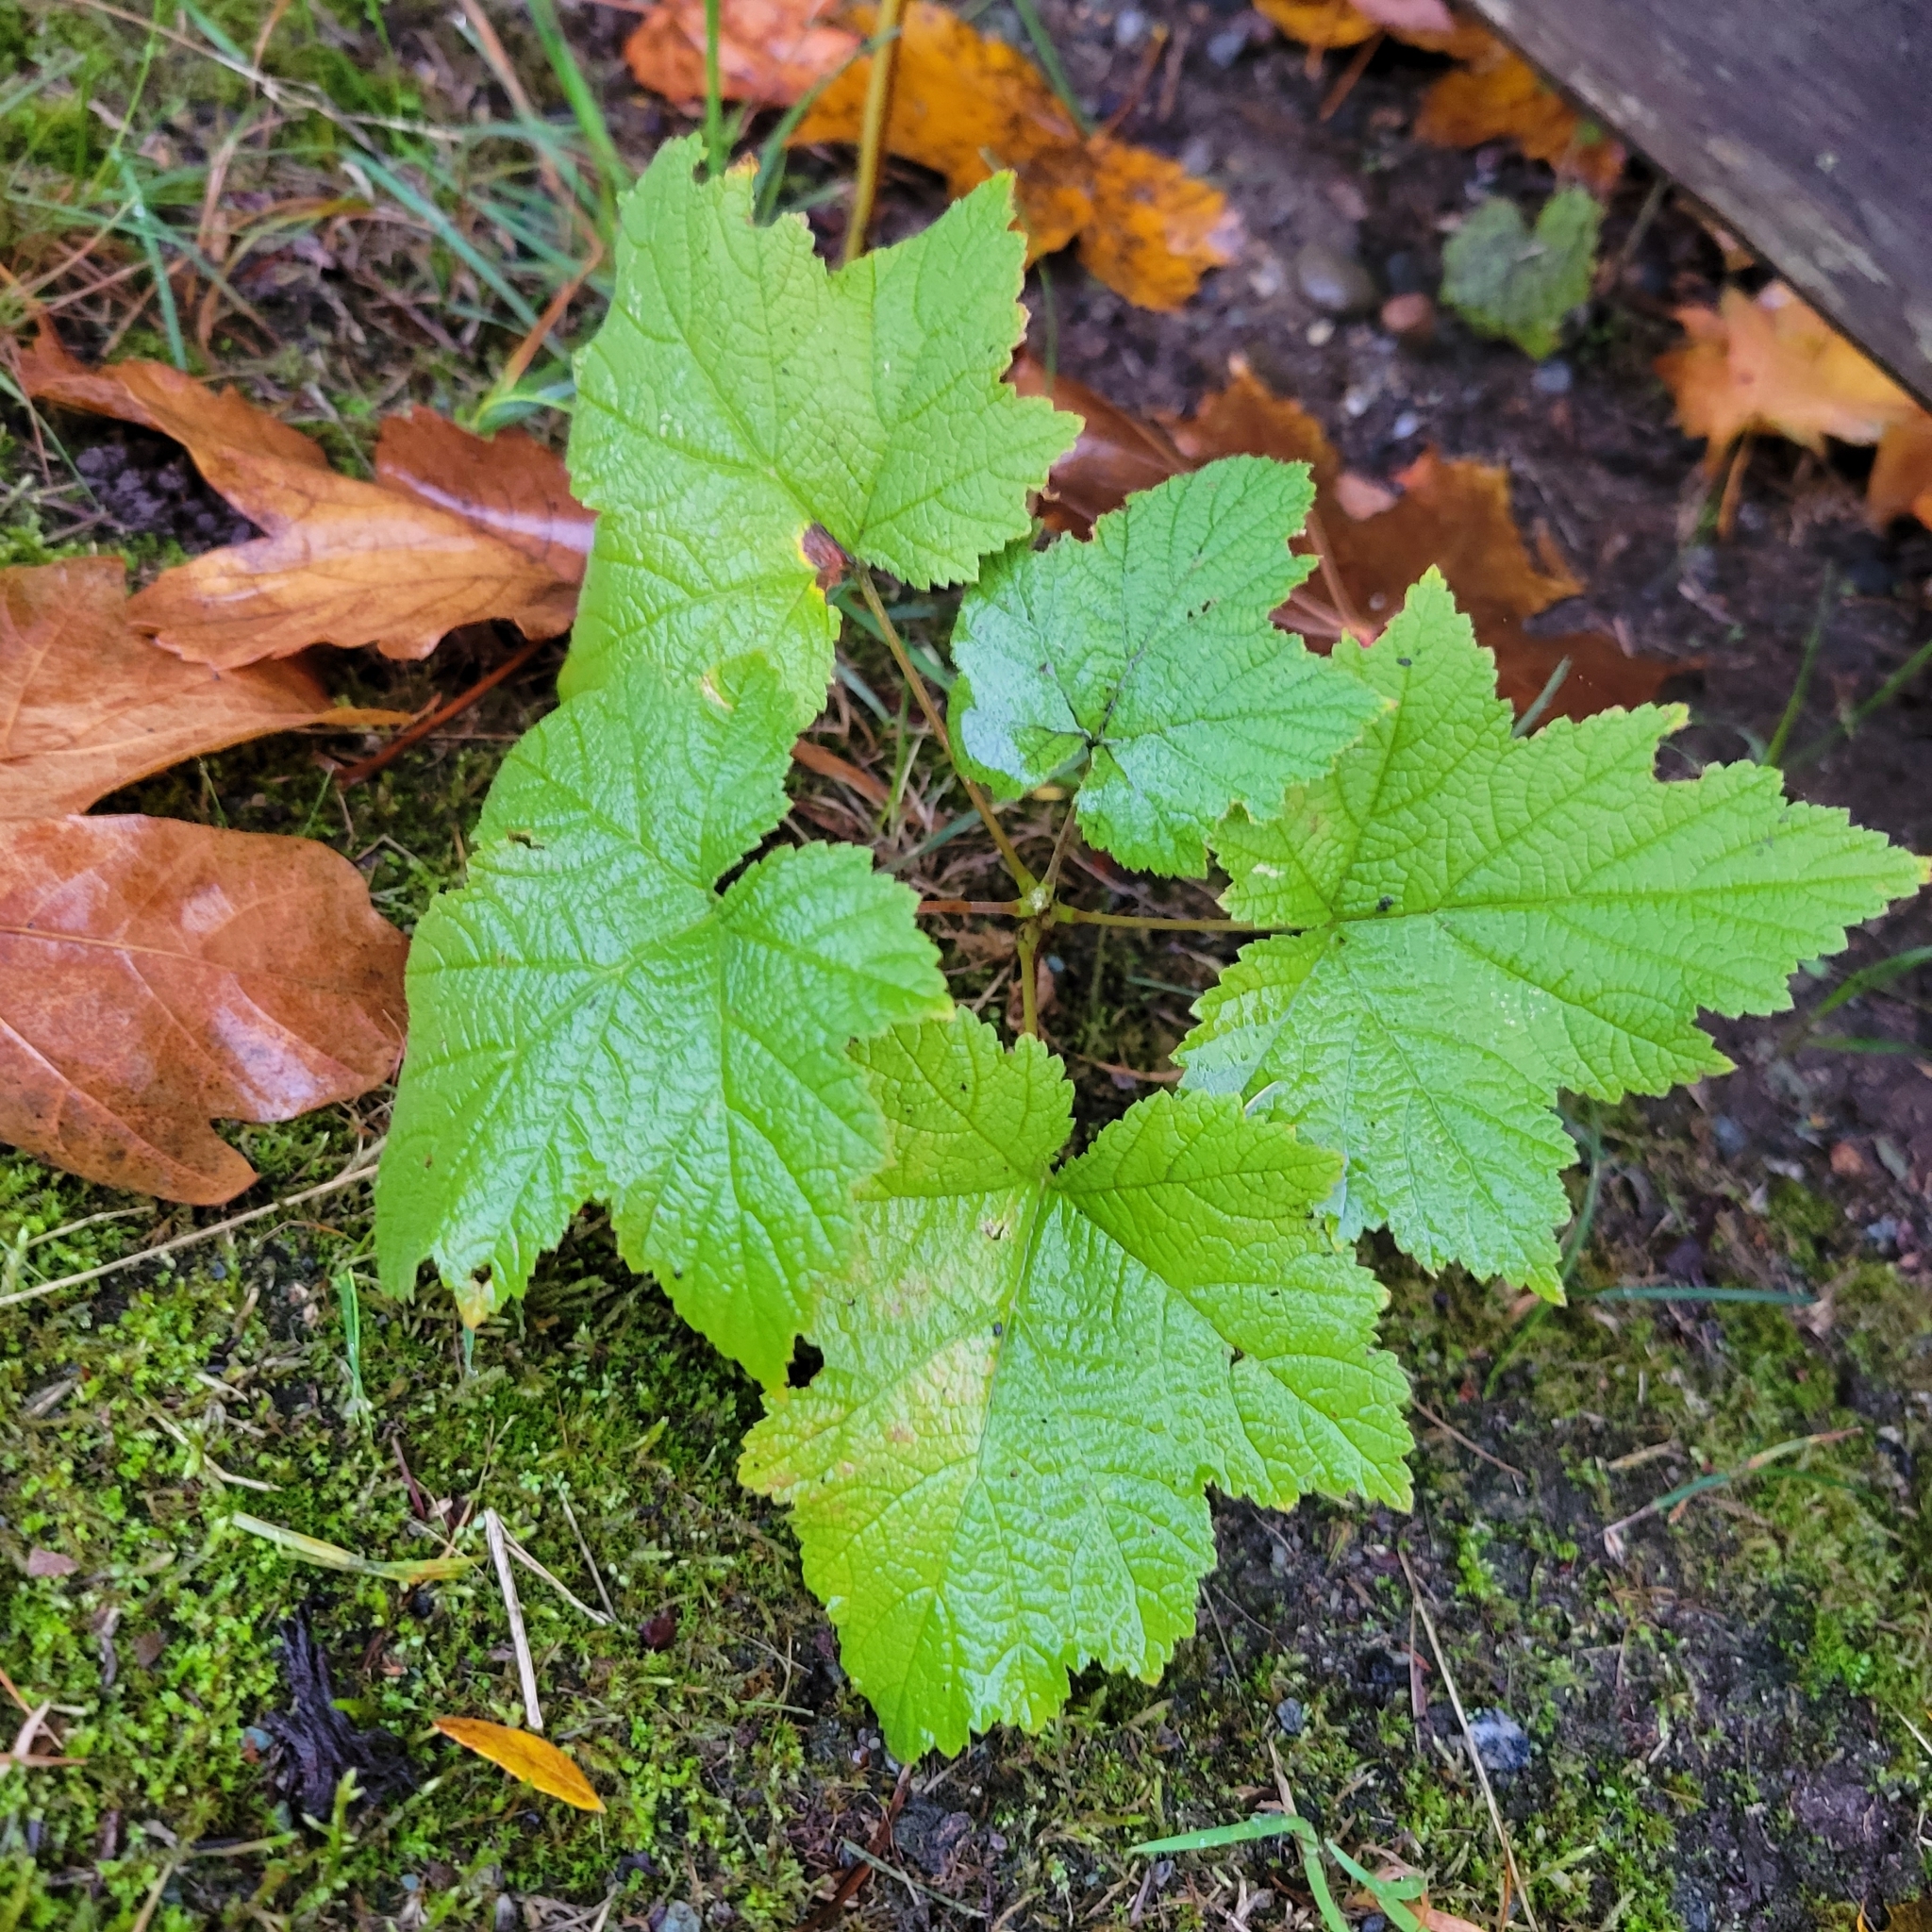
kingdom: Plantae
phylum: Tracheophyta
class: Magnoliopsida
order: Rosales
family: Rosaceae
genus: Rubus
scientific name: Rubus parviflorus
